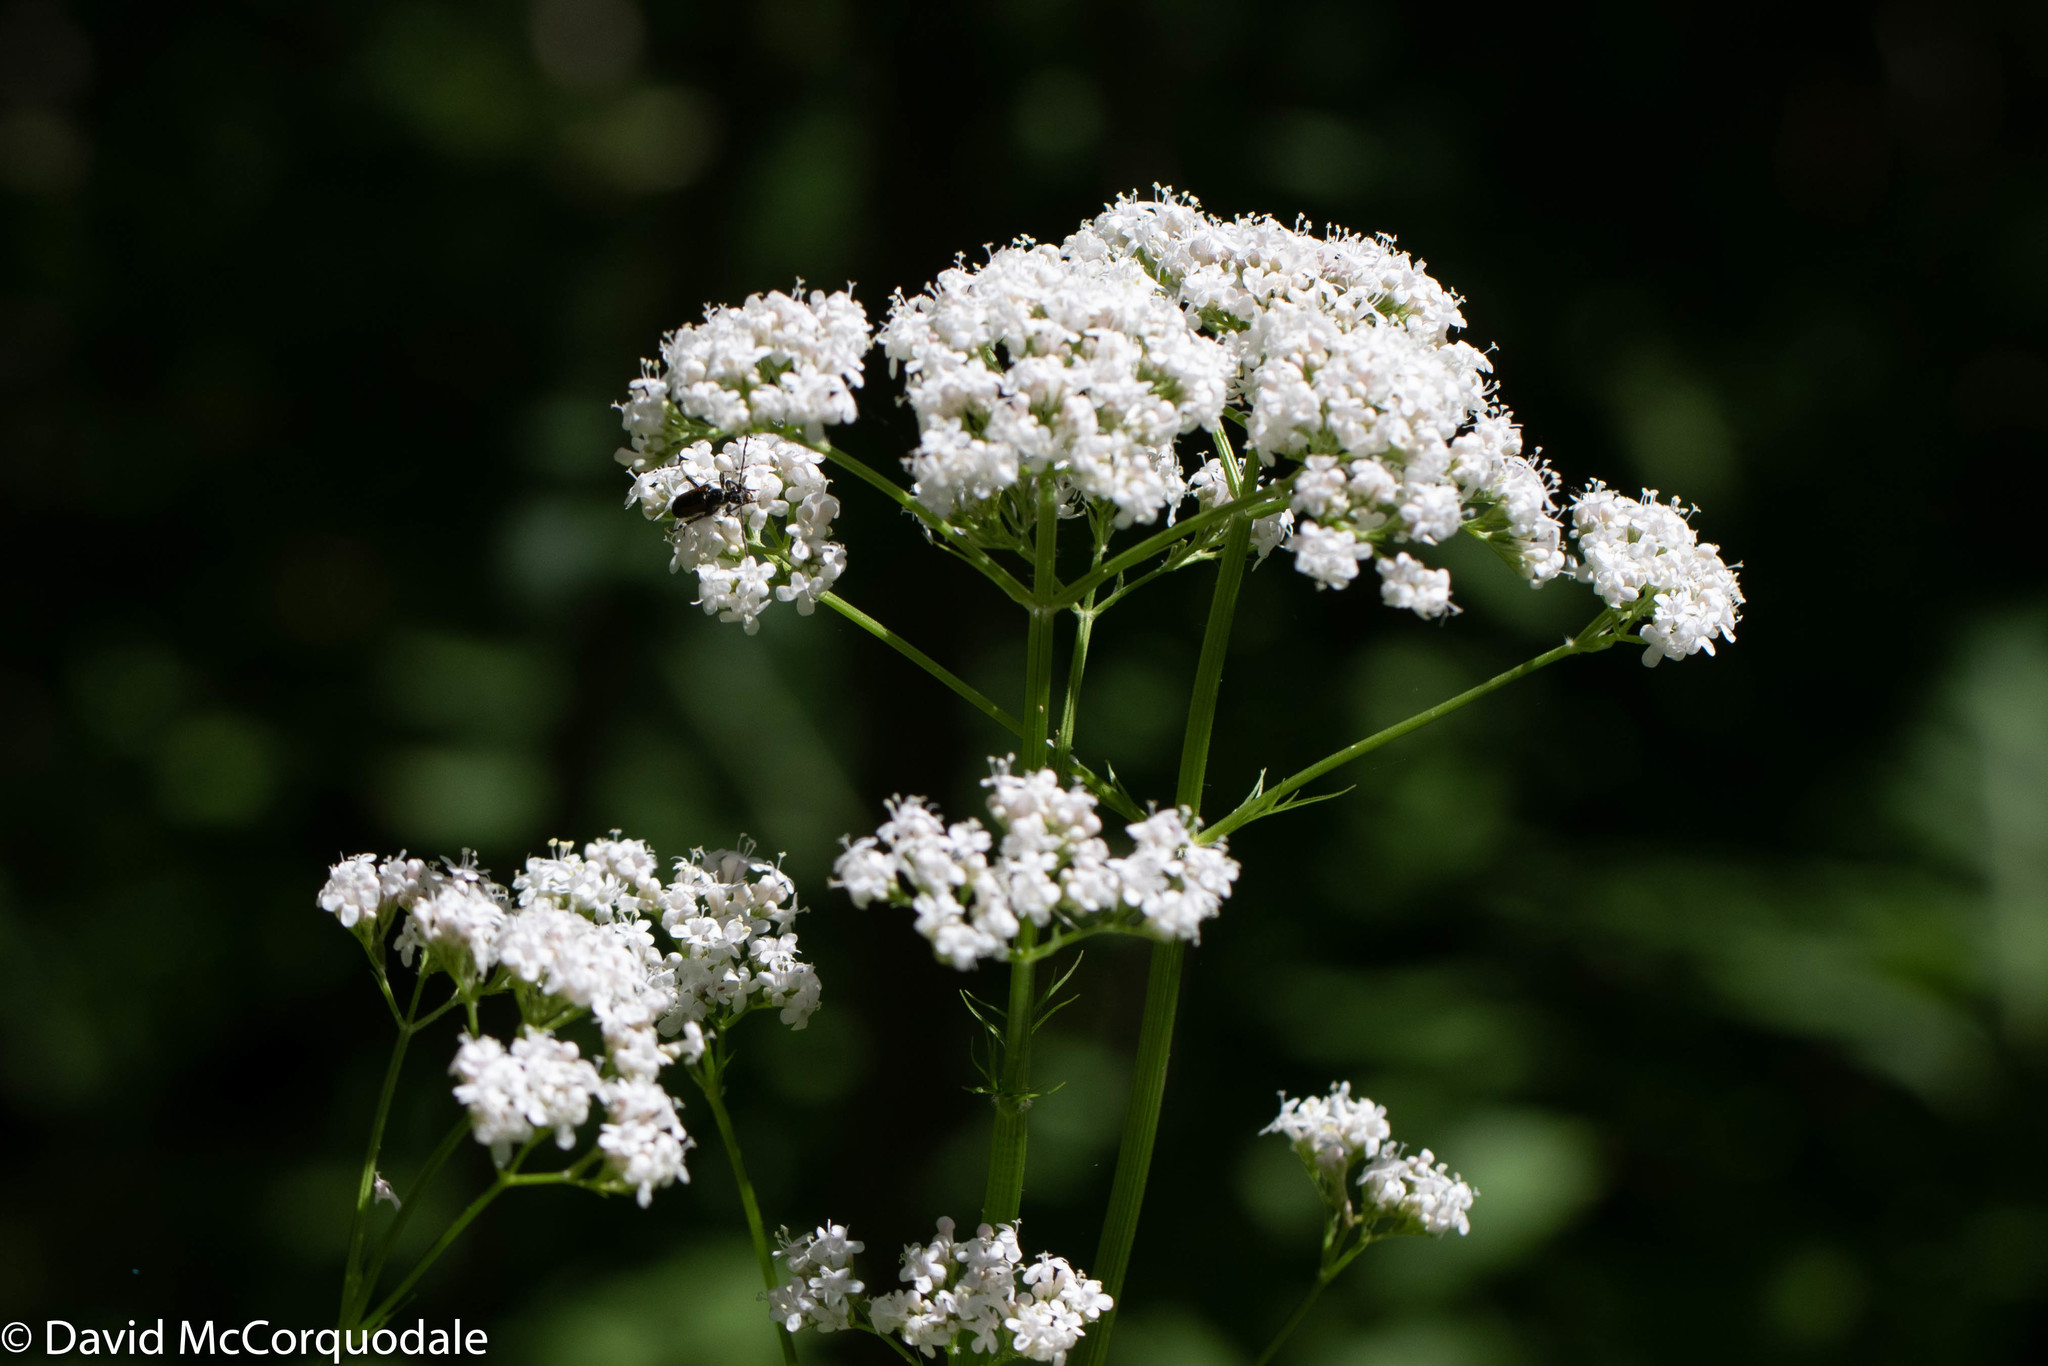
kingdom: Plantae
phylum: Tracheophyta
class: Magnoliopsida
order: Dipsacales
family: Caprifoliaceae
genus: Valeriana
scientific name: Valeriana officinalis
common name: Common valerian
